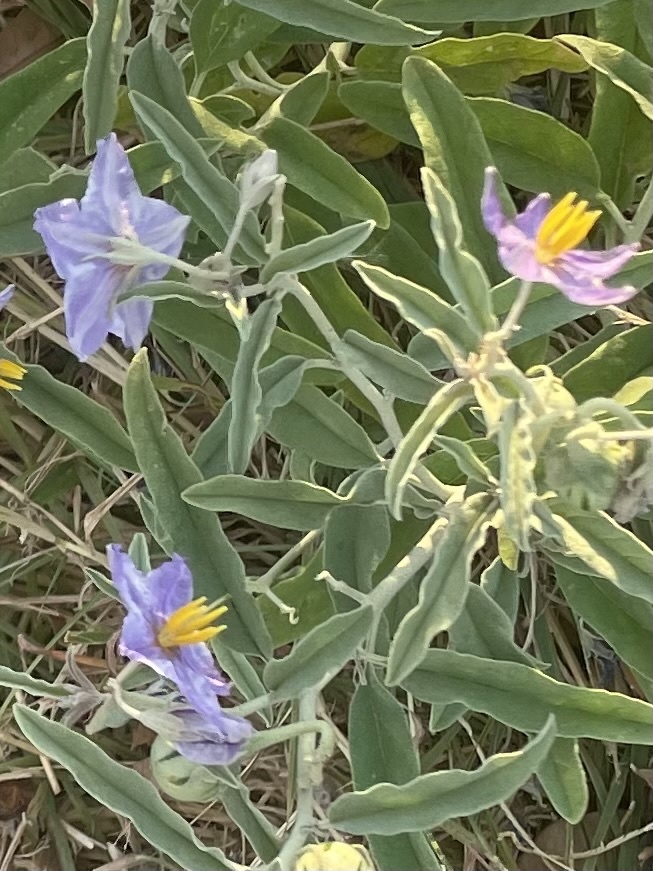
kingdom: Plantae
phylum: Tracheophyta
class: Magnoliopsida
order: Solanales
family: Solanaceae
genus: Solanum
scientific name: Solanum elaeagnifolium
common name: Silverleaf nightshade
